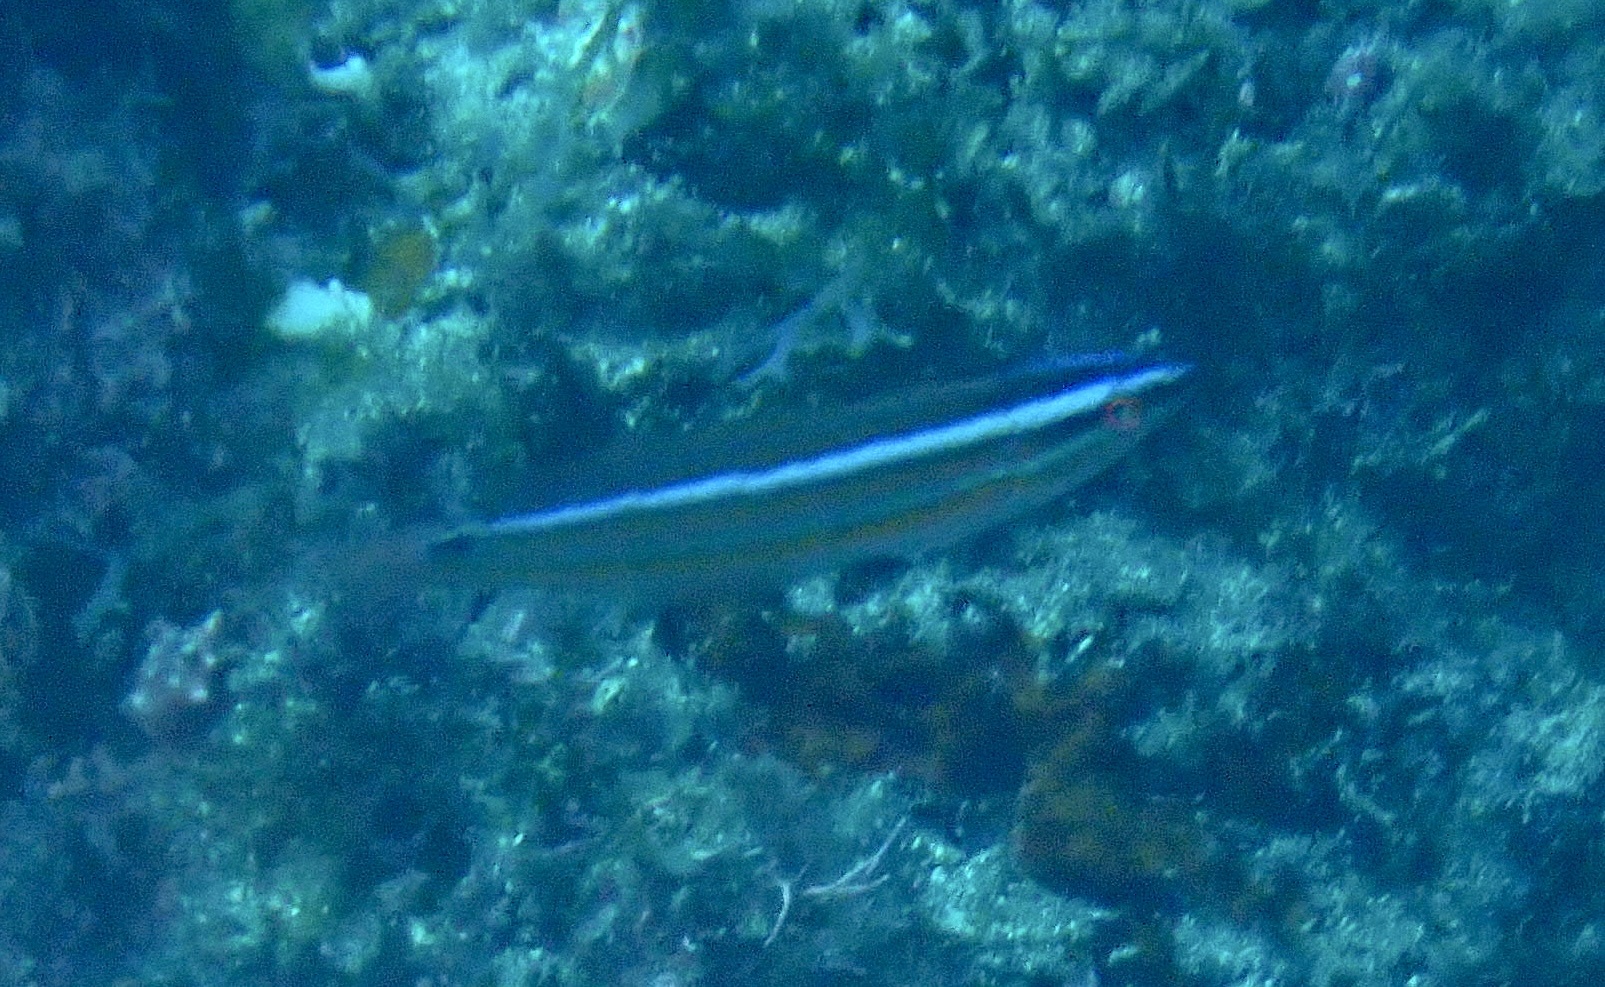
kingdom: Animalia
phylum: Chordata
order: Perciformes
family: Labridae
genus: Coris
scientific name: Coris atlantica
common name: Rainbow wrasse
